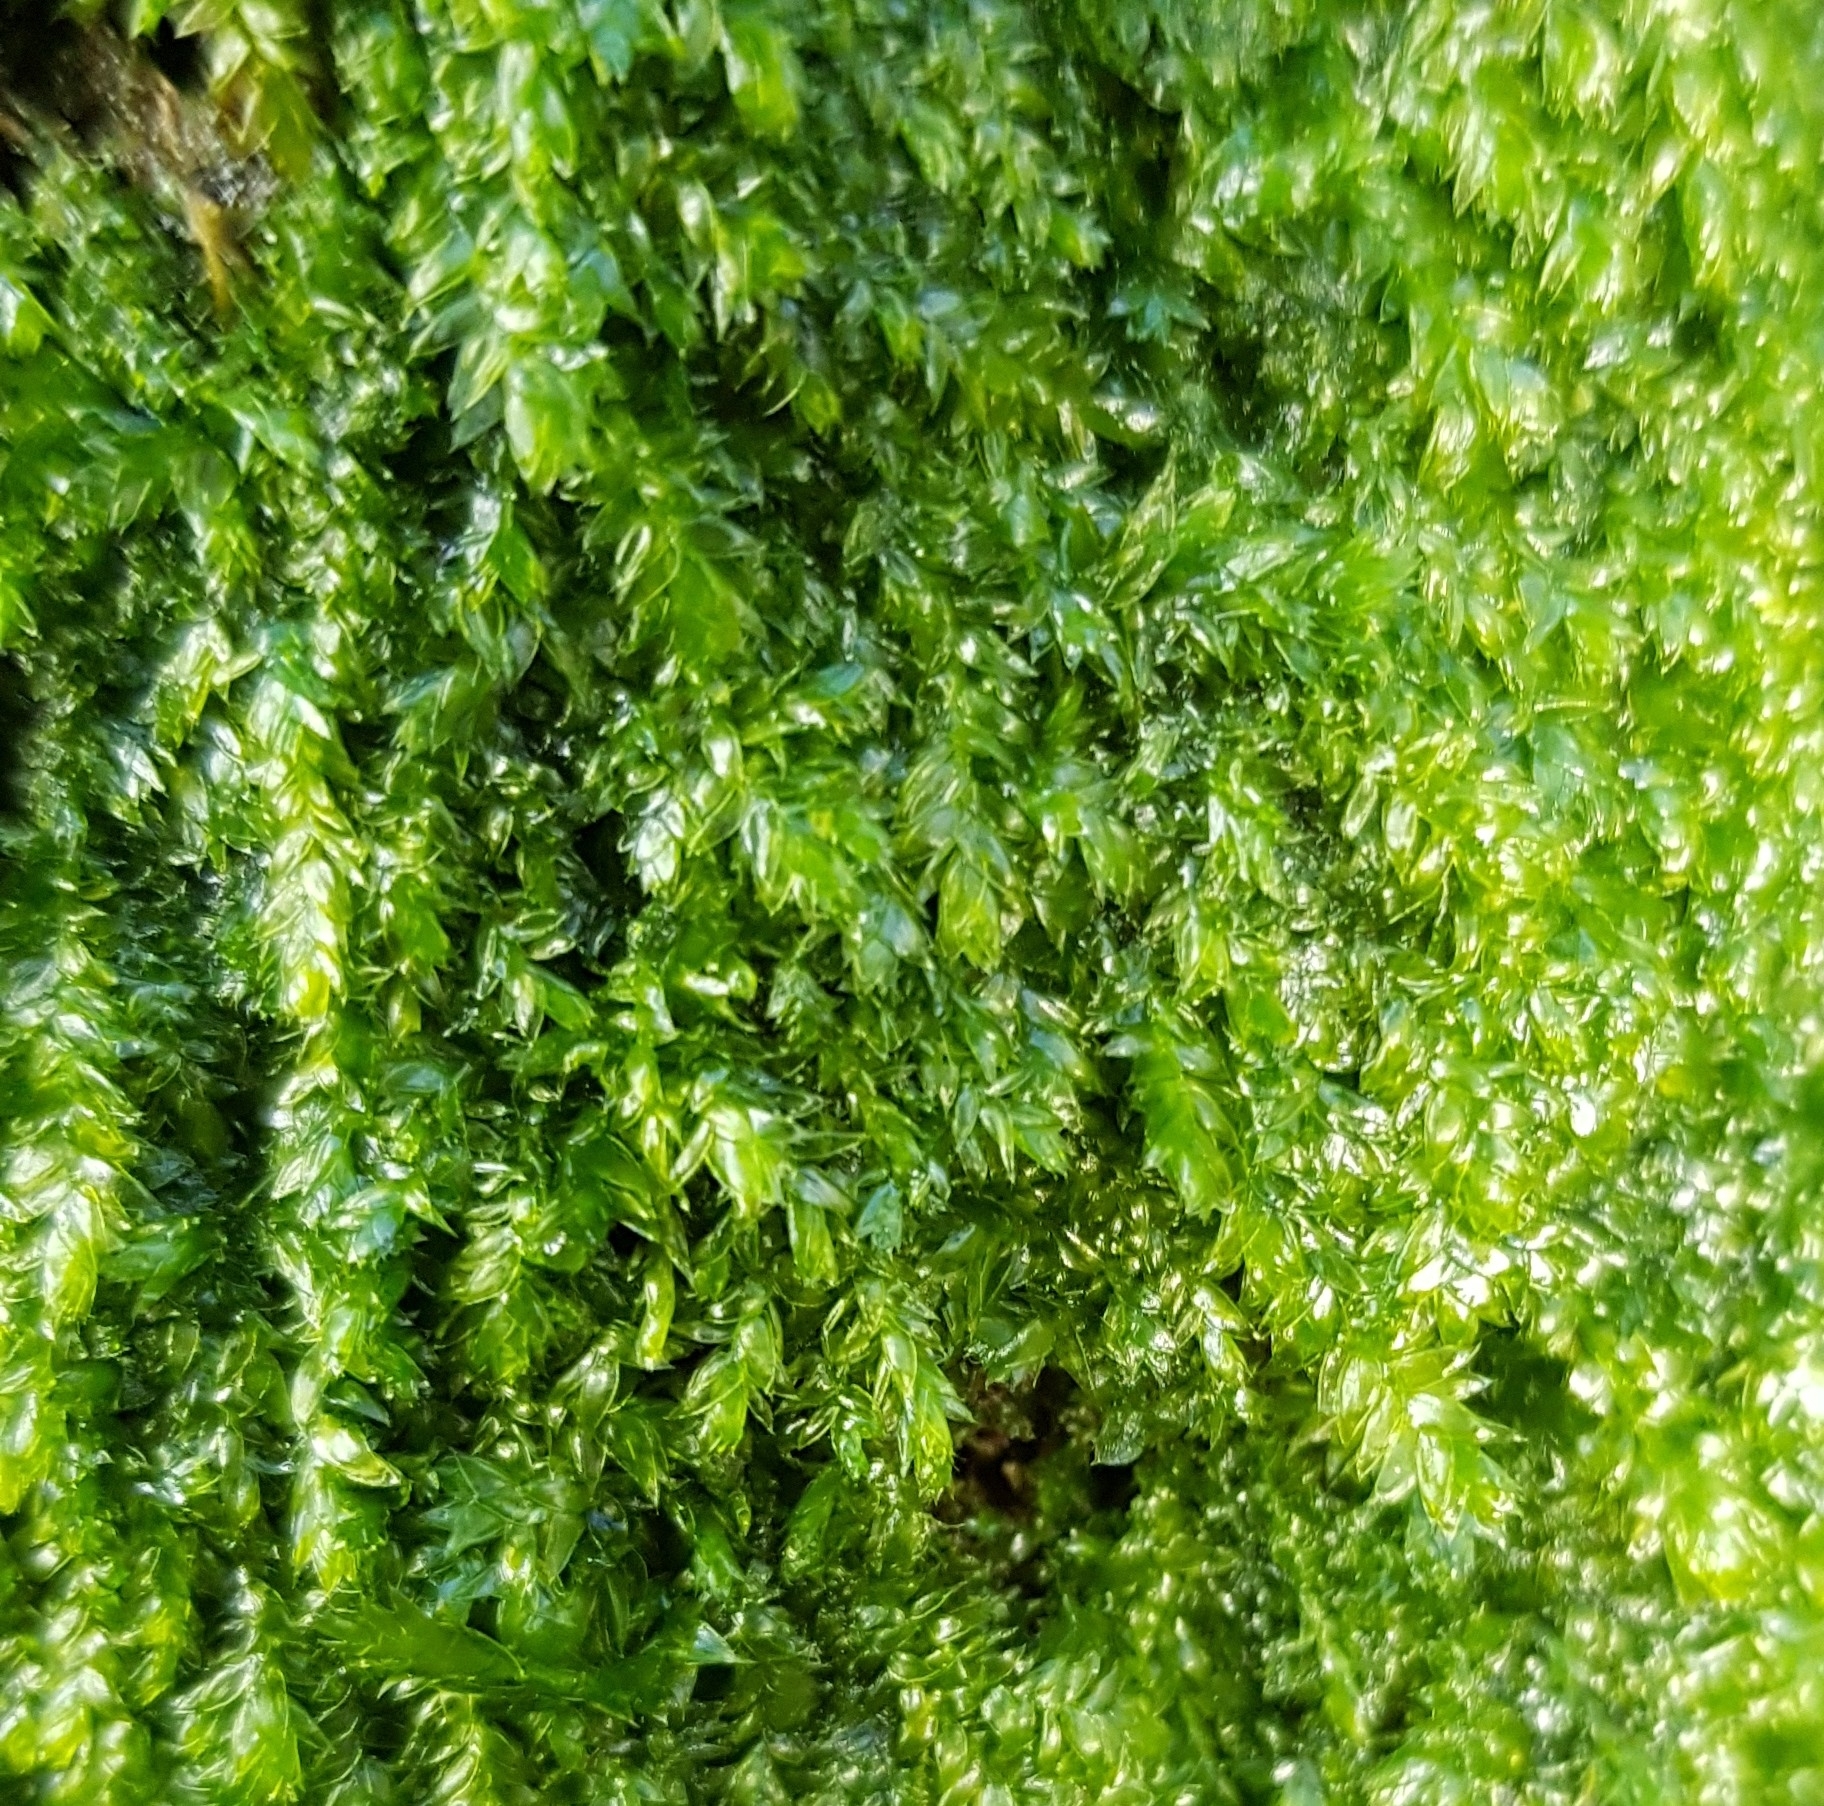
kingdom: Plantae
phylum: Bryophyta
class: Bryopsida
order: Hypnales
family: Plagiotheciaceae
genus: Plagiothecium
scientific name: Plagiothecium denticulatum
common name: Dented silk moss
